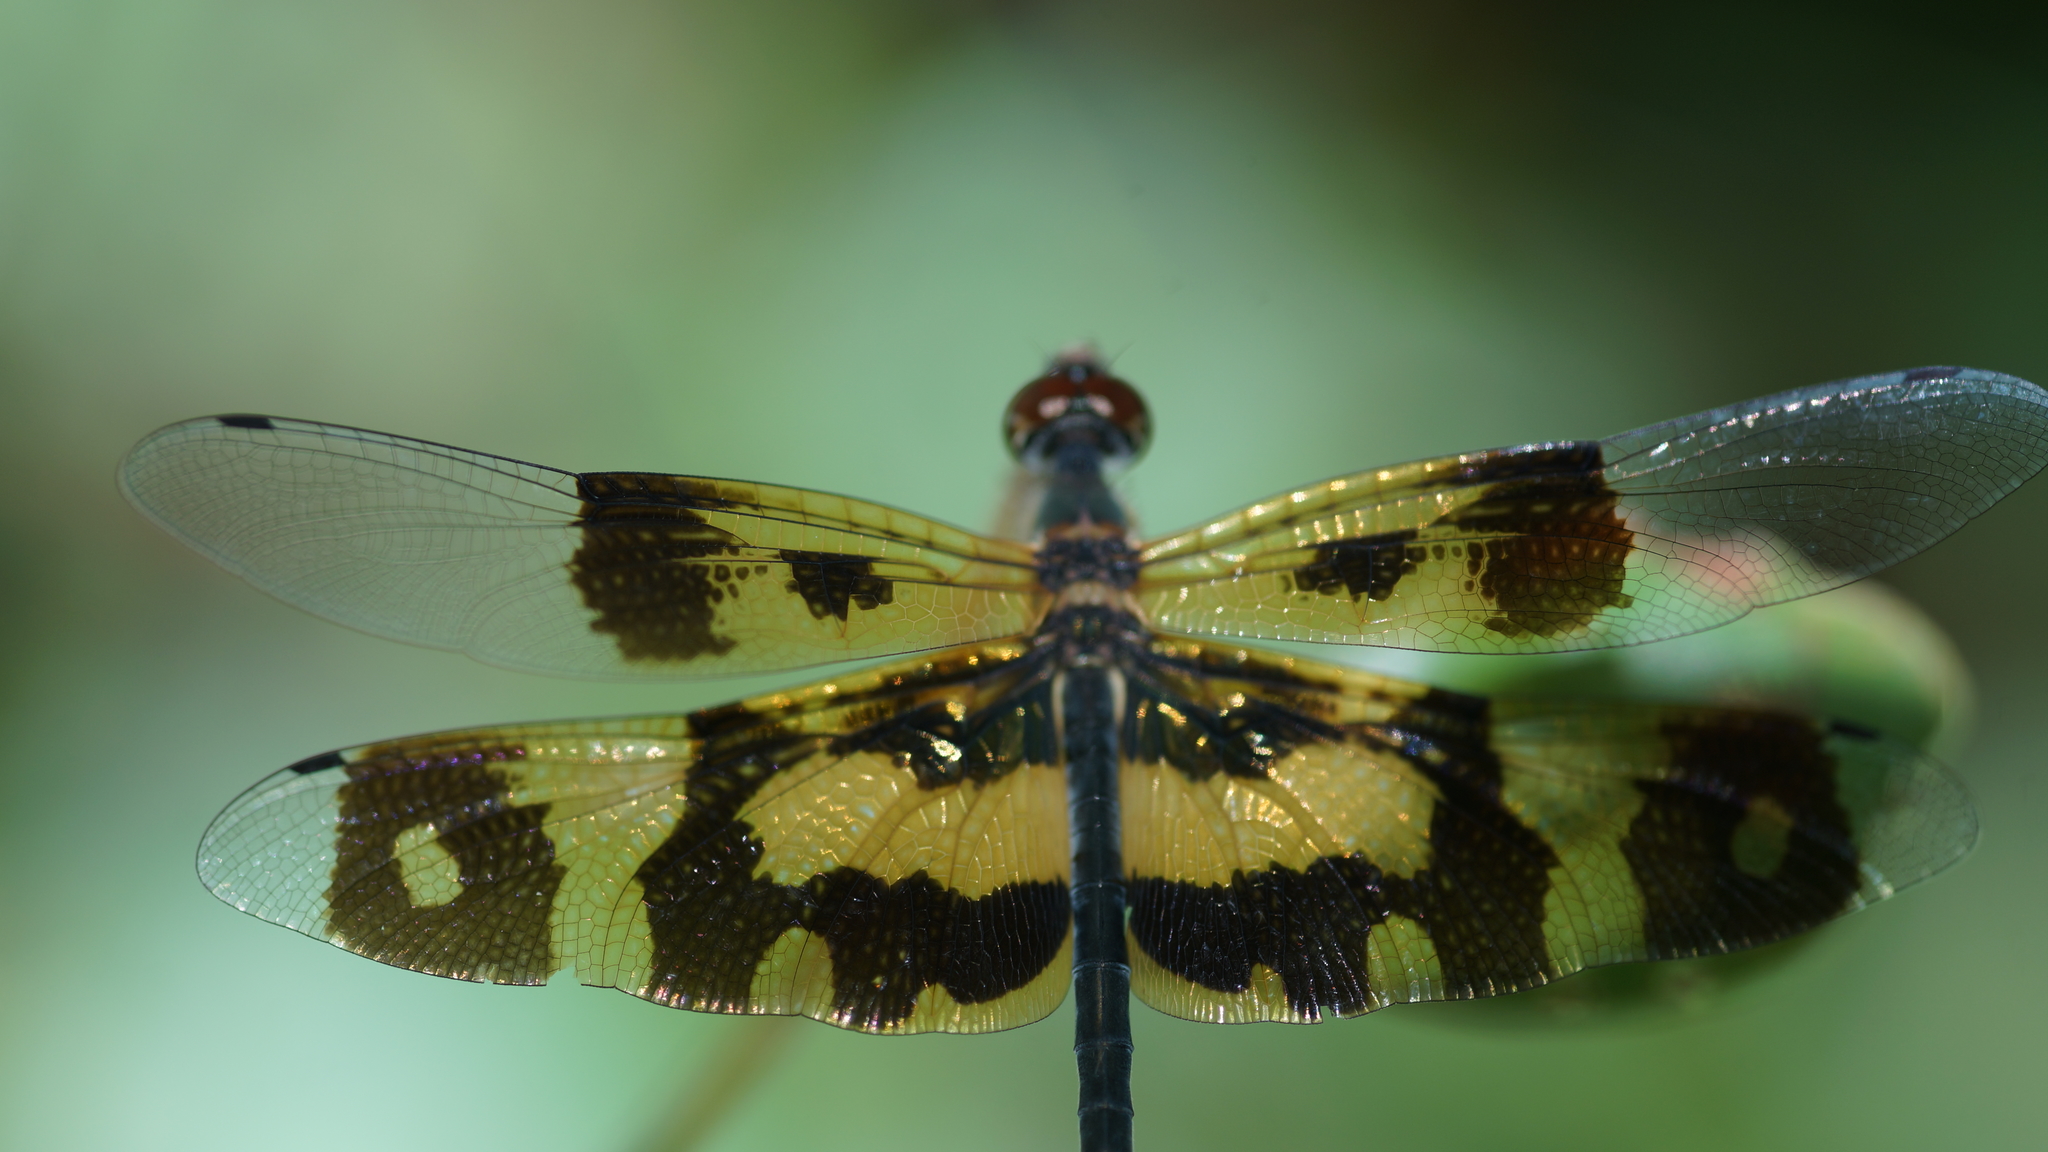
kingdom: Animalia
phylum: Arthropoda
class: Insecta
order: Odonata
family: Libellulidae
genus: Rhyothemis
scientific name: Rhyothemis variegata
